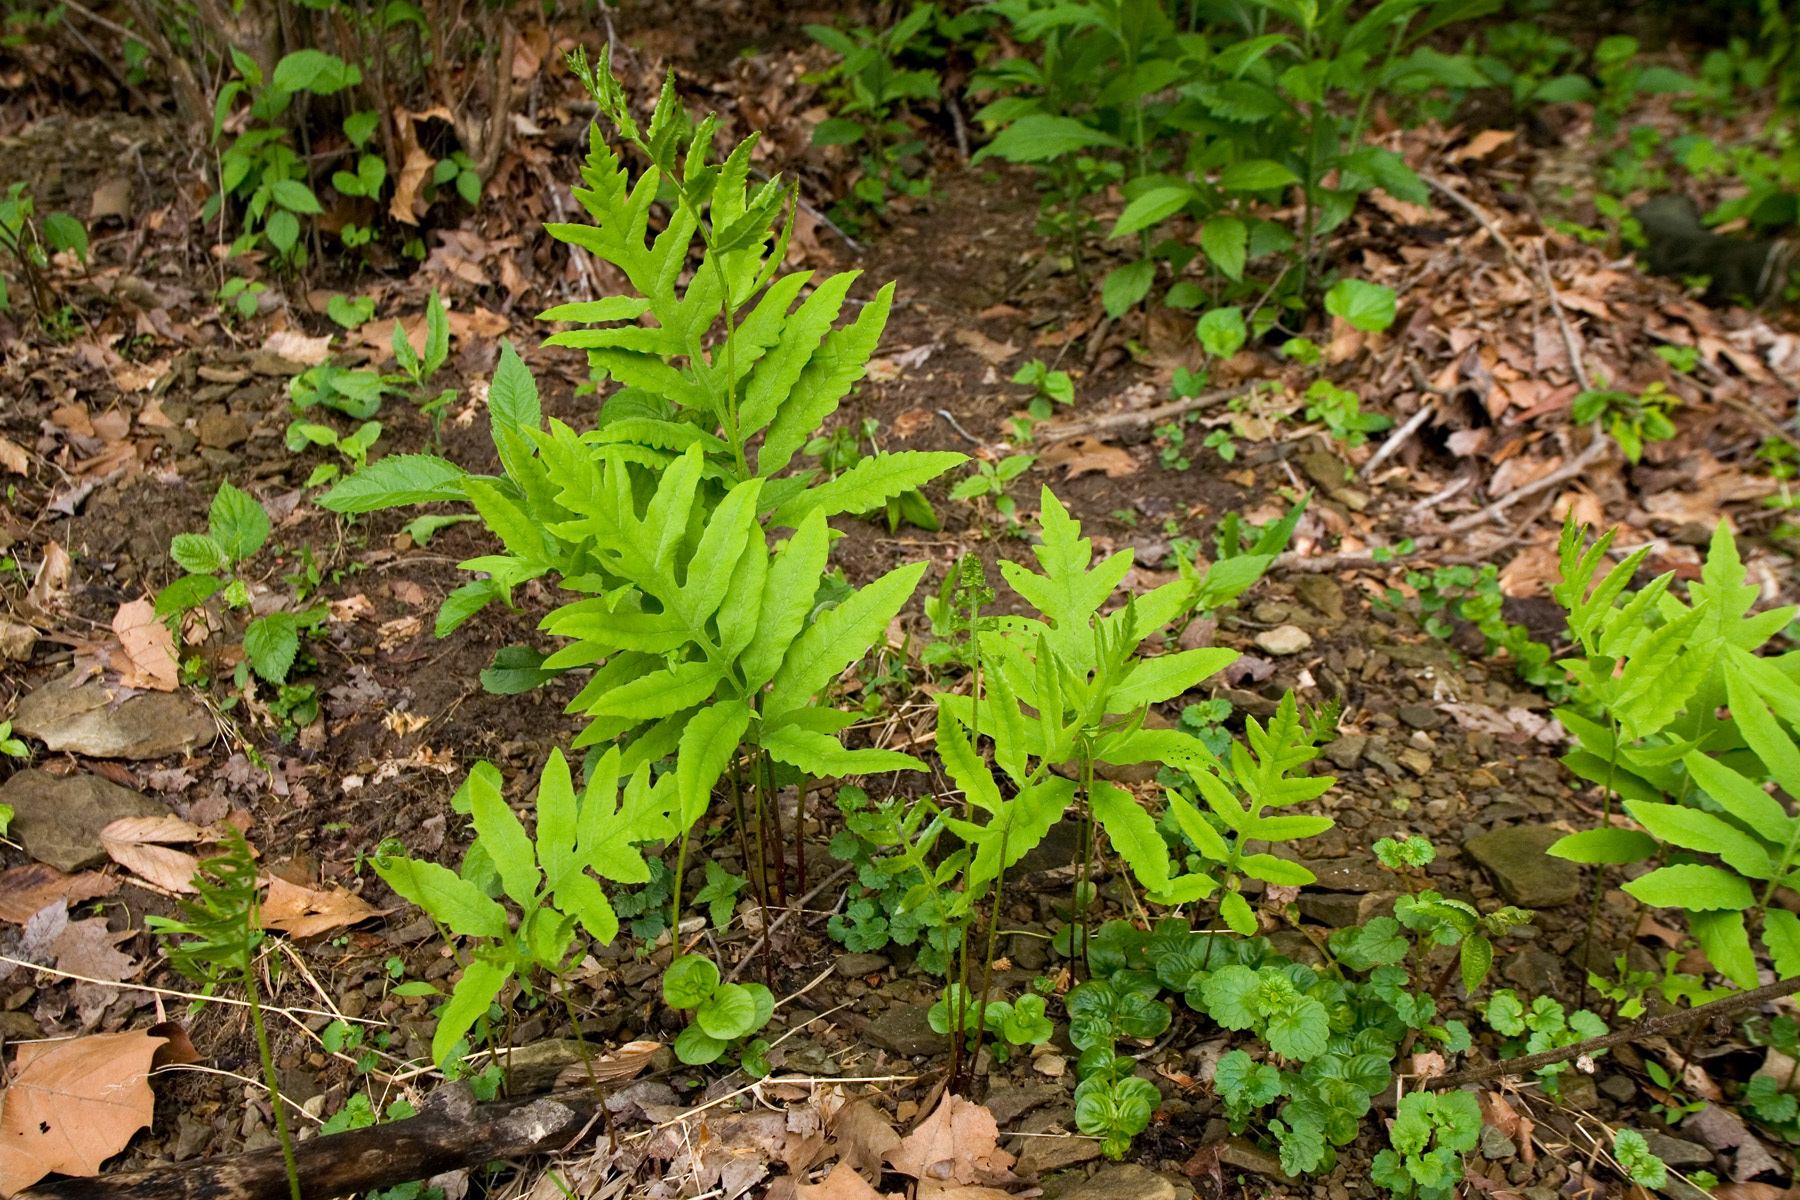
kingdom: Plantae
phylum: Tracheophyta
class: Polypodiopsida
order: Polypodiales
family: Onocleaceae
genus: Onoclea
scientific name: Onoclea sensibilis
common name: Sensitive fern
